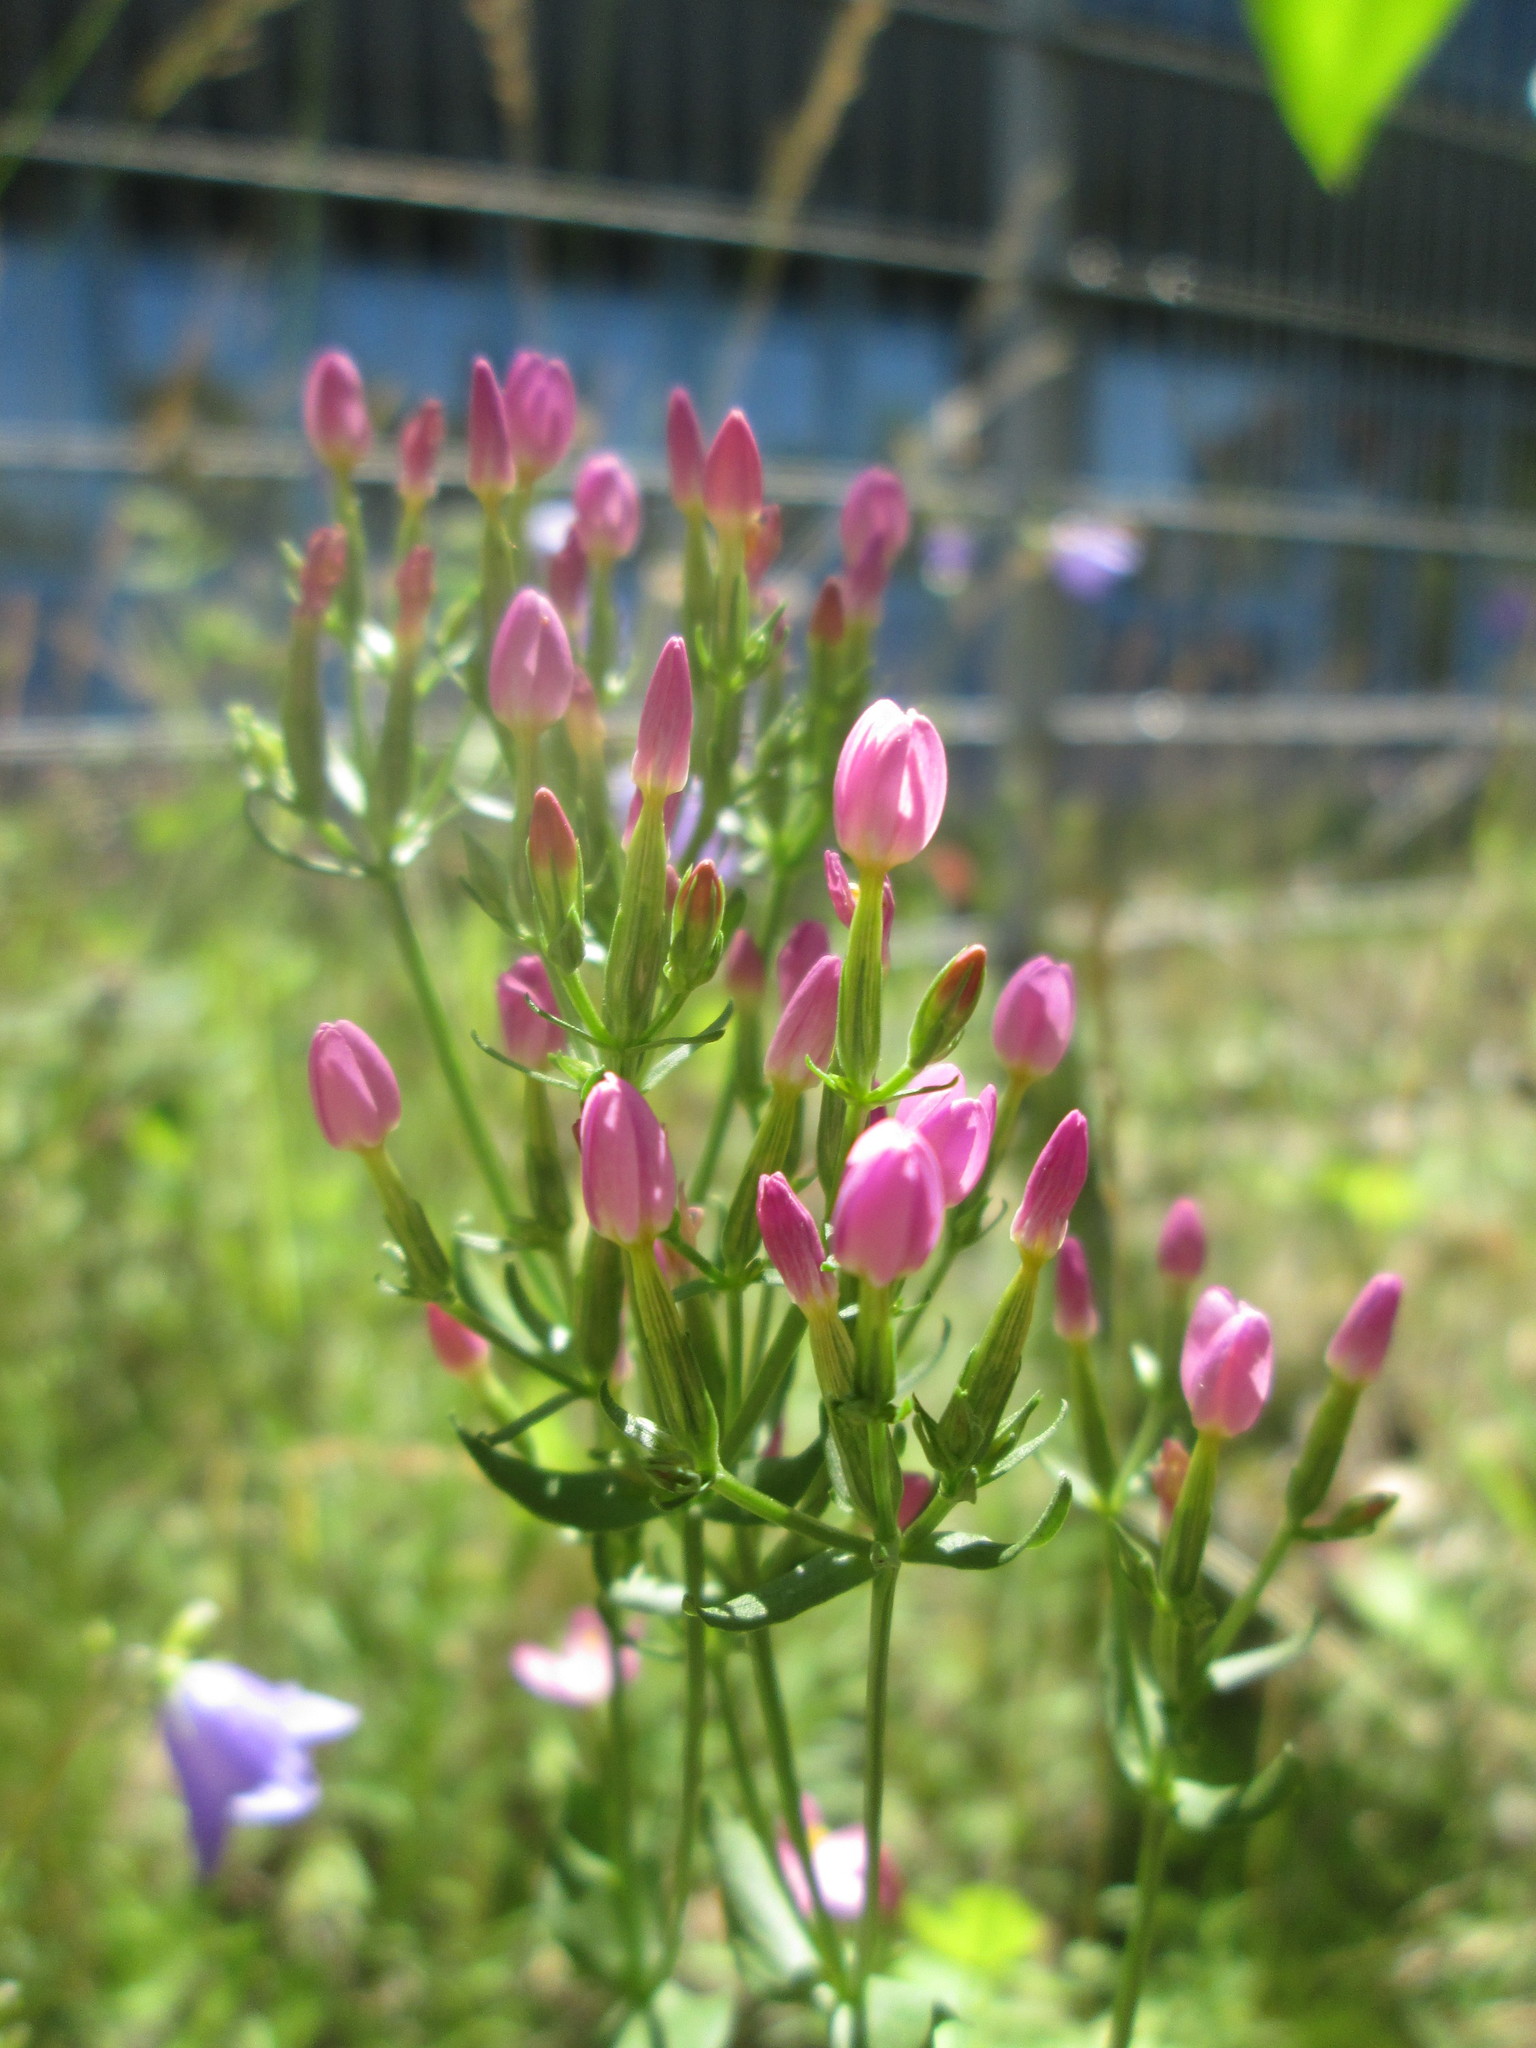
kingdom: Plantae
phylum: Tracheophyta
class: Magnoliopsida
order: Gentianales
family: Gentianaceae
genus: Centaurium
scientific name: Centaurium erythraea
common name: Common centaury
